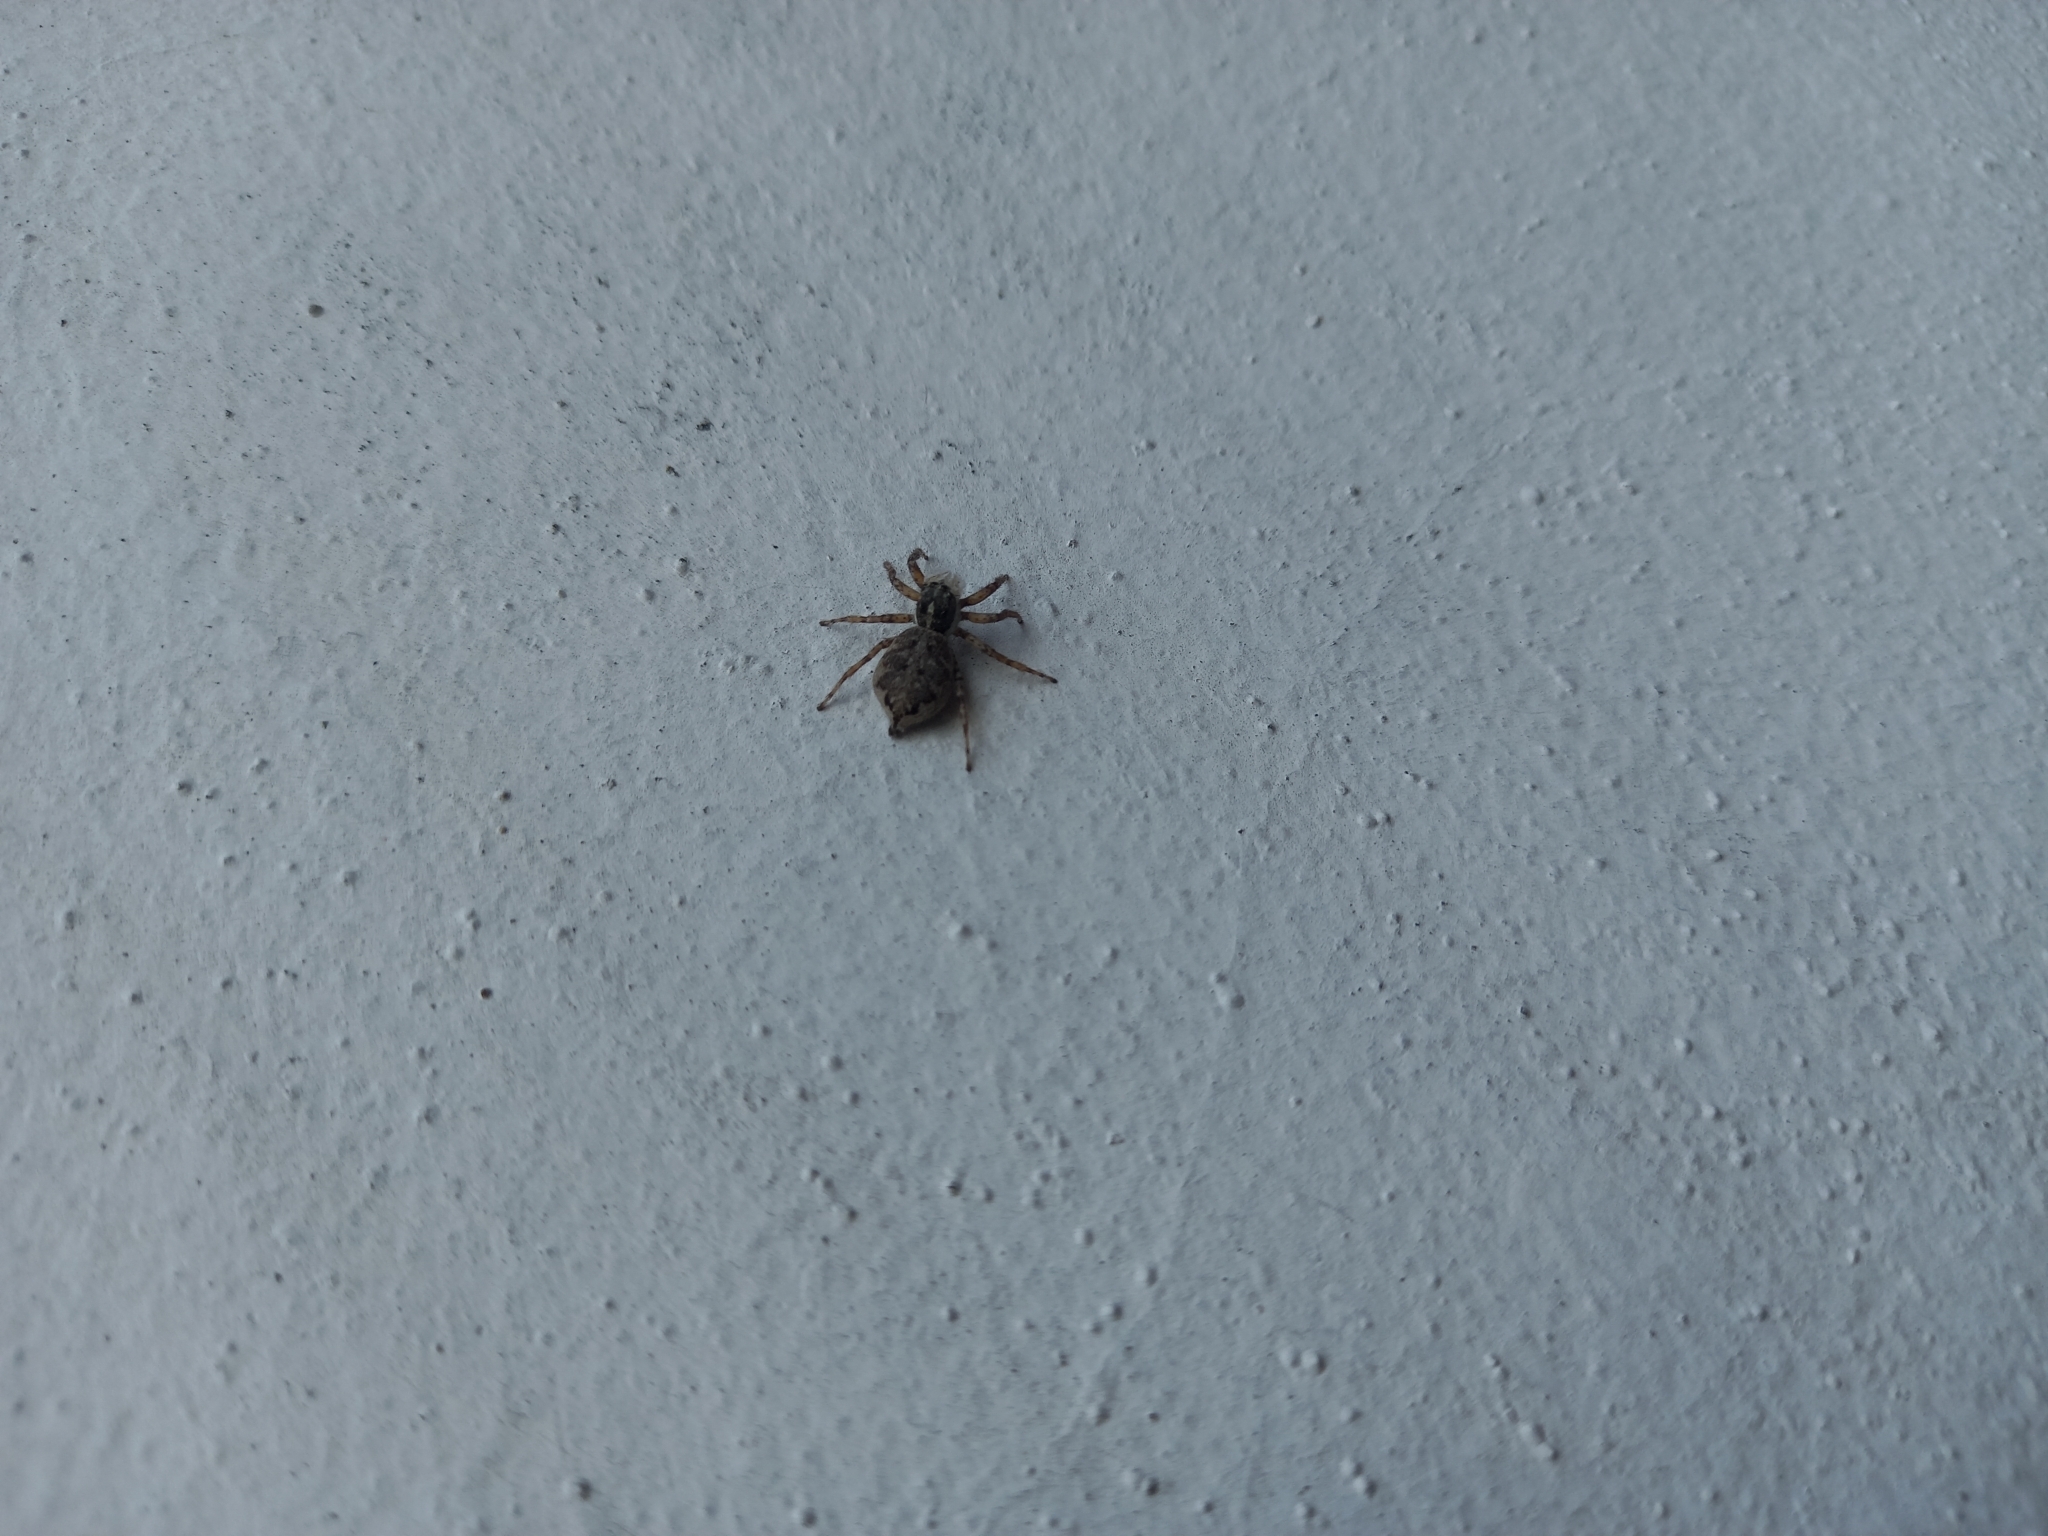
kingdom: Animalia
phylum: Arthropoda
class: Arachnida
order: Araneae
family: Salticidae
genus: Menemerus
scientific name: Menemerus semilimbatus
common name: Jumping spider
